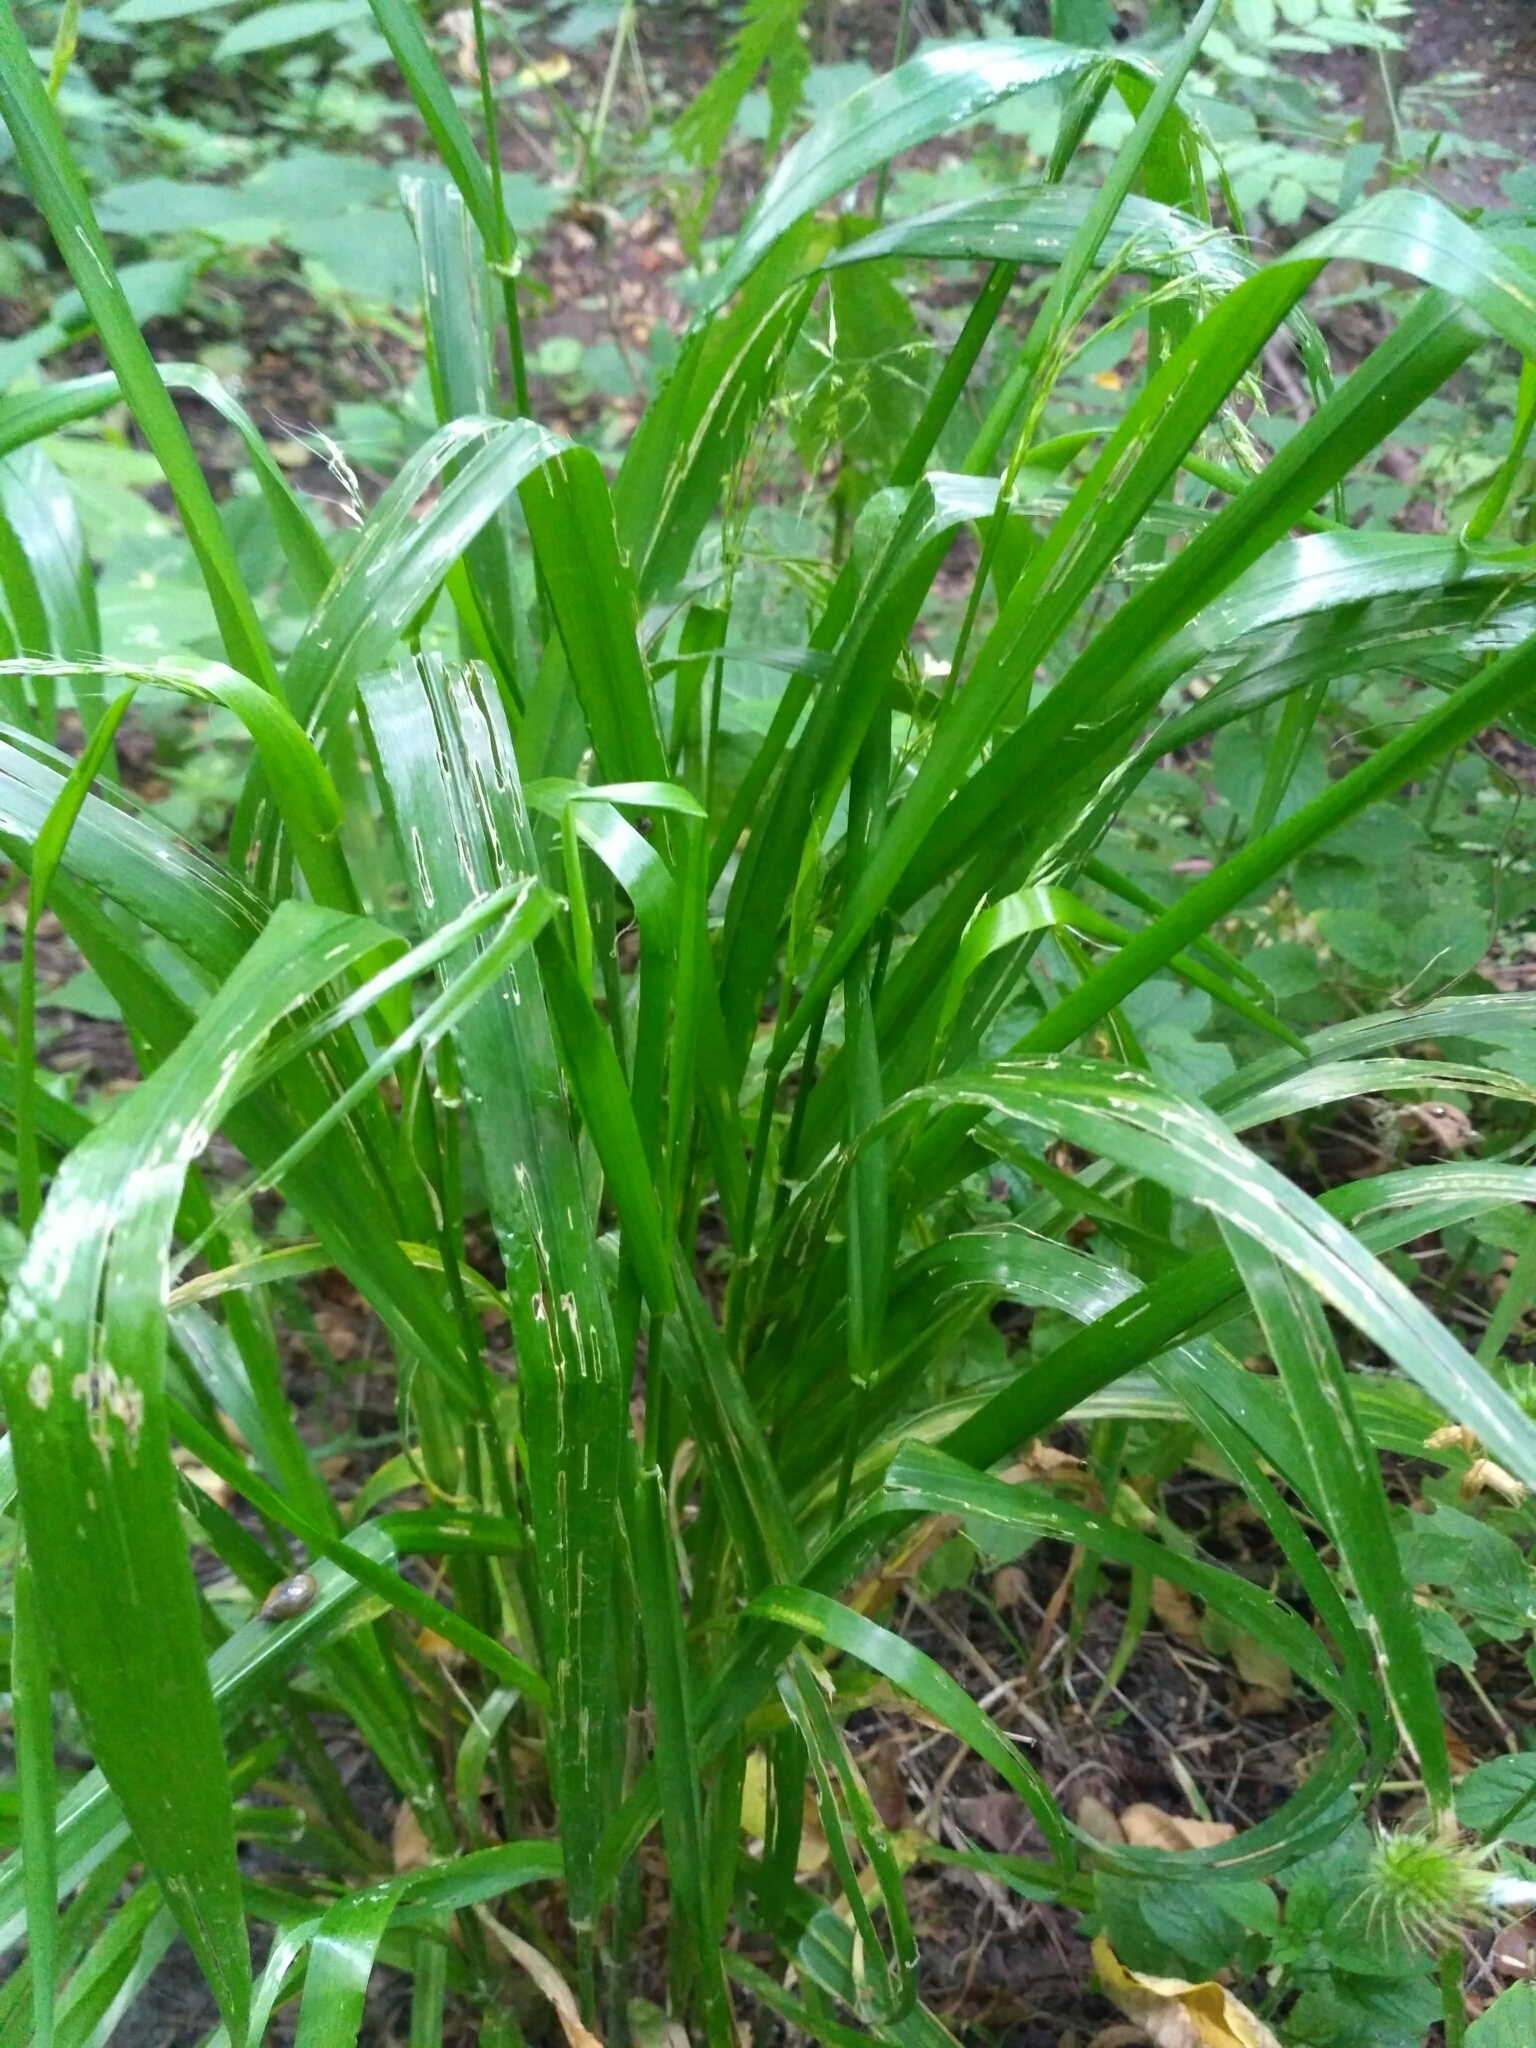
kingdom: Plantae
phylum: Tracheophyta
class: Liliopsida
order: Poales
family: Poaceae
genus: Lolium
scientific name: Lolium giganteum
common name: Giant fescue
